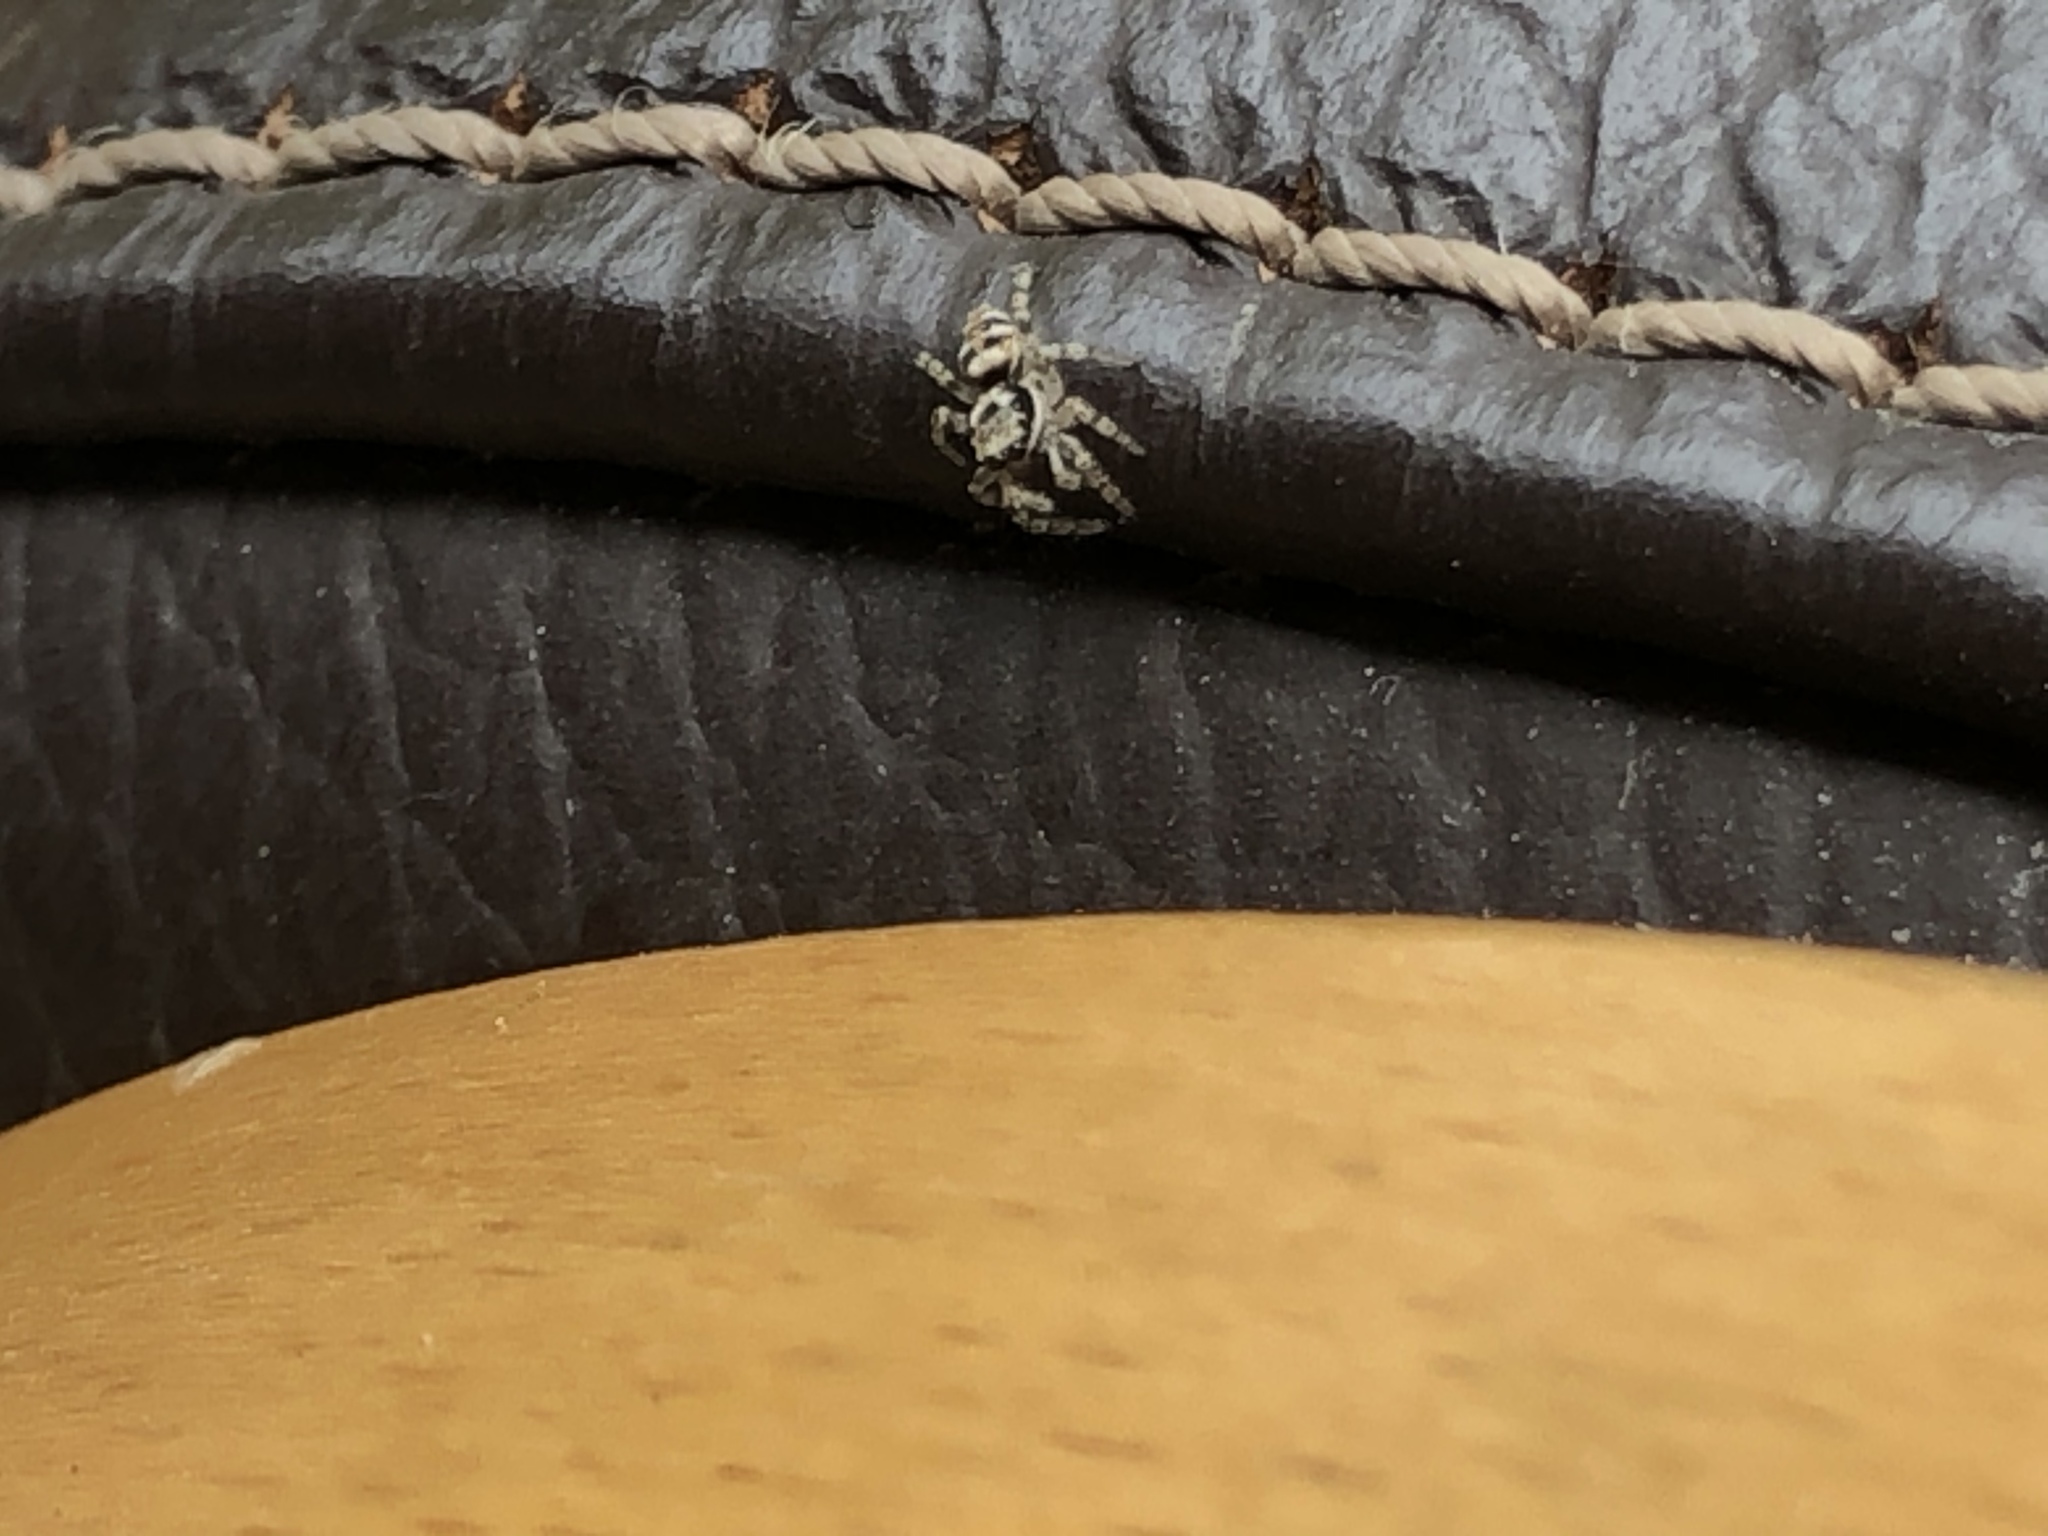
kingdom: Animalia
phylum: Arthropoda
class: Arachnida
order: Araneae
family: Salticidae
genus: Salticus
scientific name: Salticus scenicus
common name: Zebra jumper
